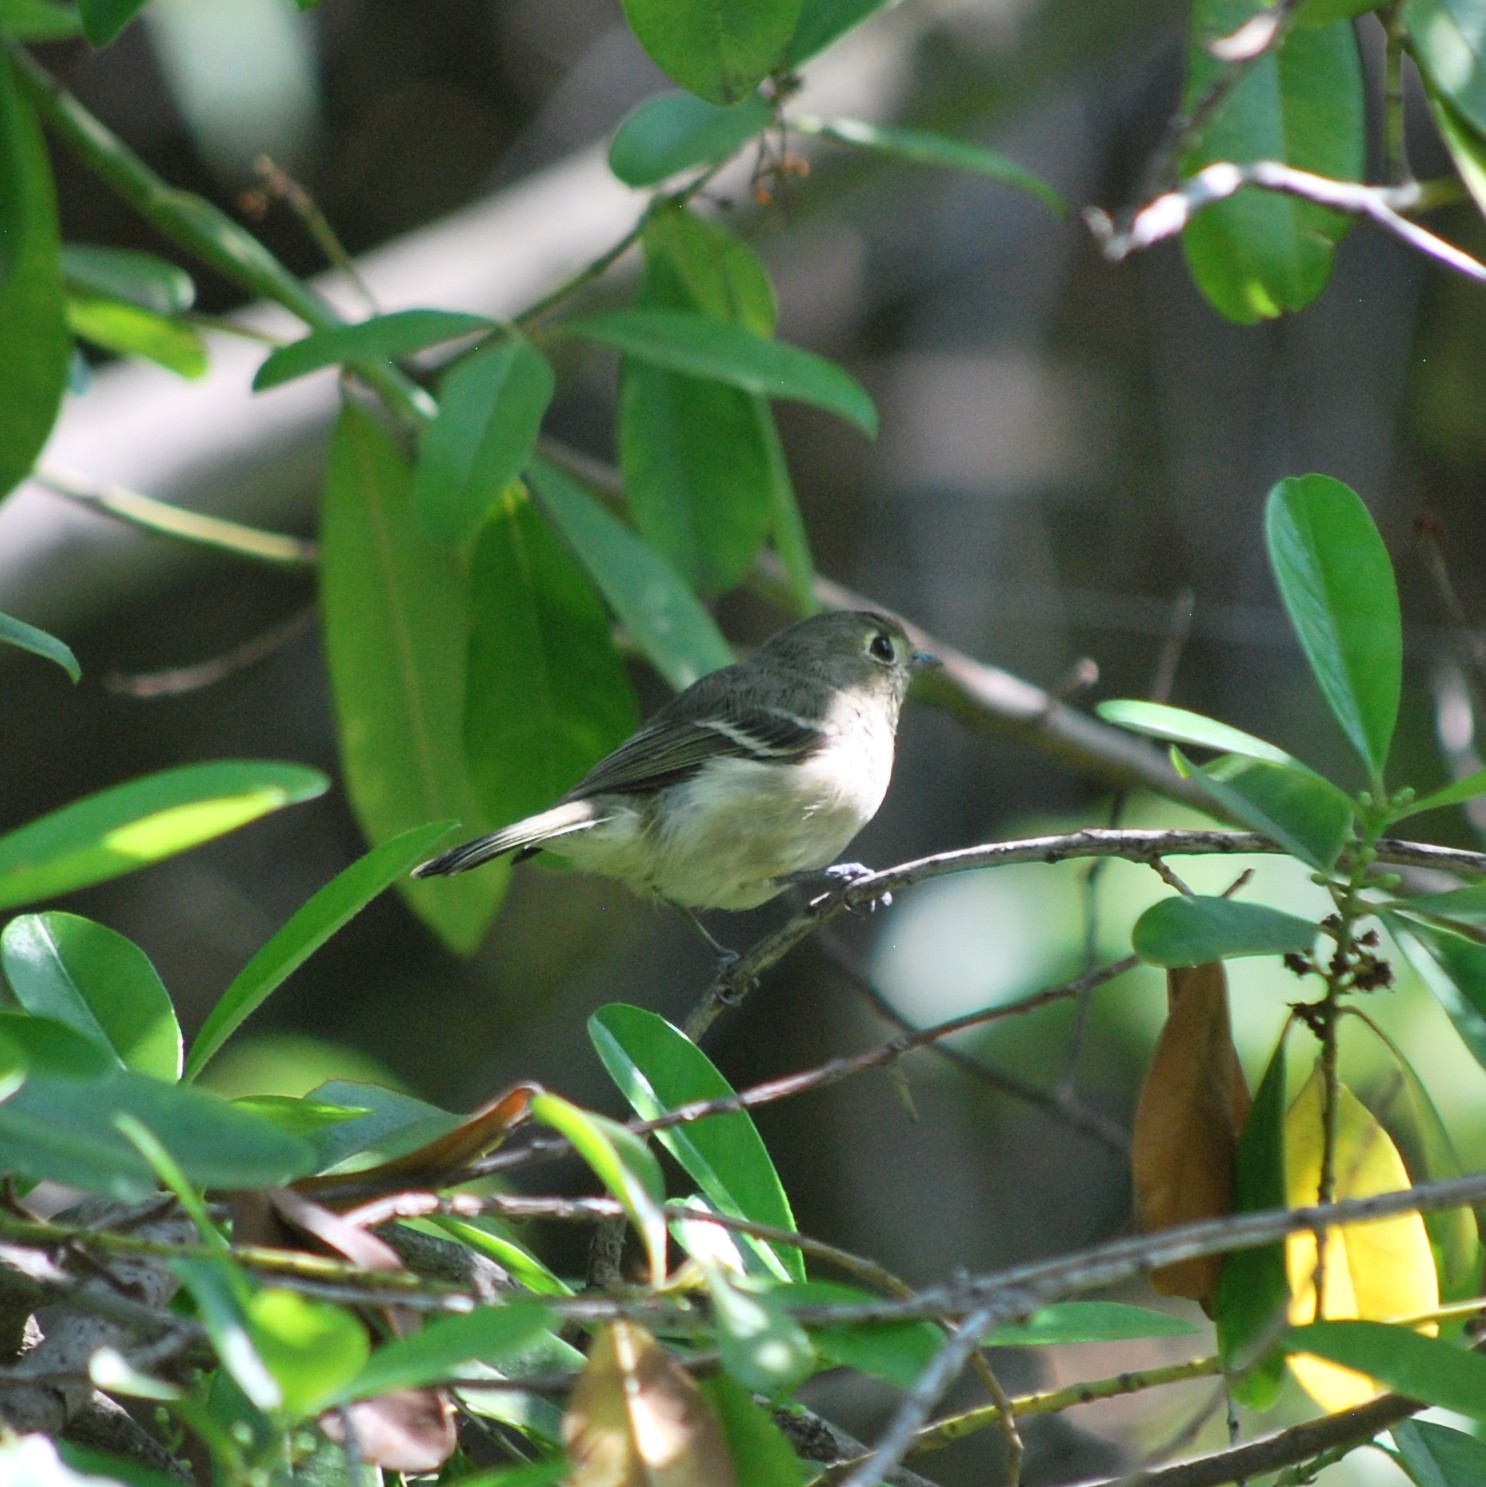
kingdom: Animalia
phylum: Chordata
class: Aves
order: Passeriformes
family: Vireonidae
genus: Vireo
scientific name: Vireo huttoni
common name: Hutton's vireo
